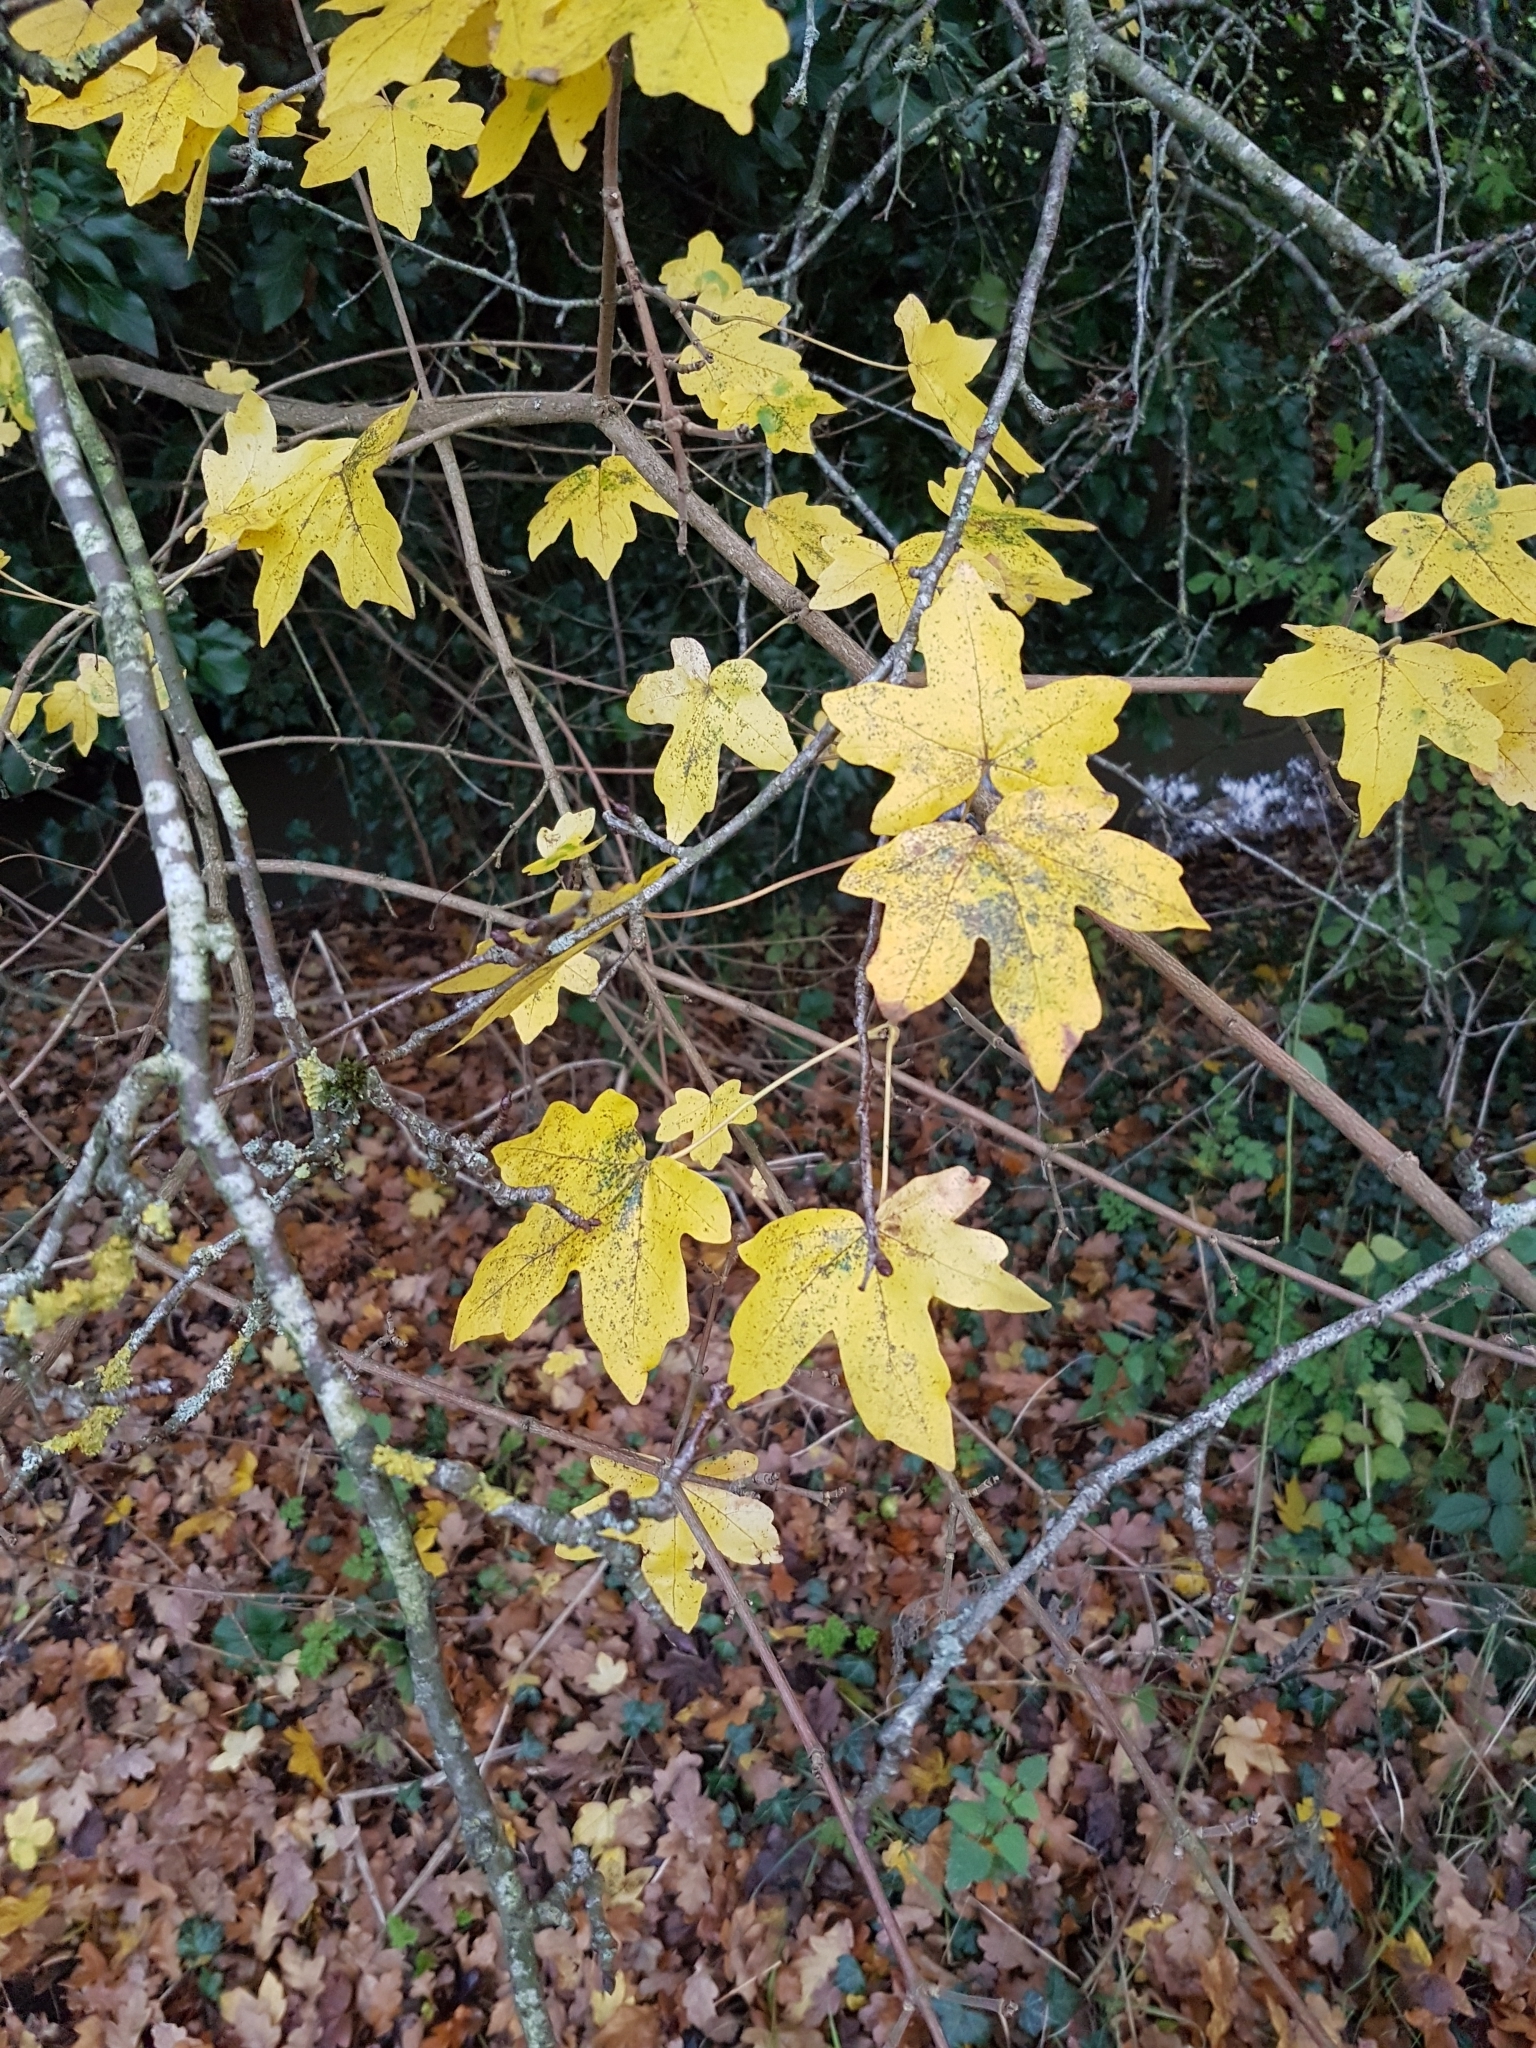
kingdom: Plantae
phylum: Tracheophyta
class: Magnoliopsida
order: Sapindales
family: Sapindaceae
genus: Acer
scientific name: Acer campestre
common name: Field maple
